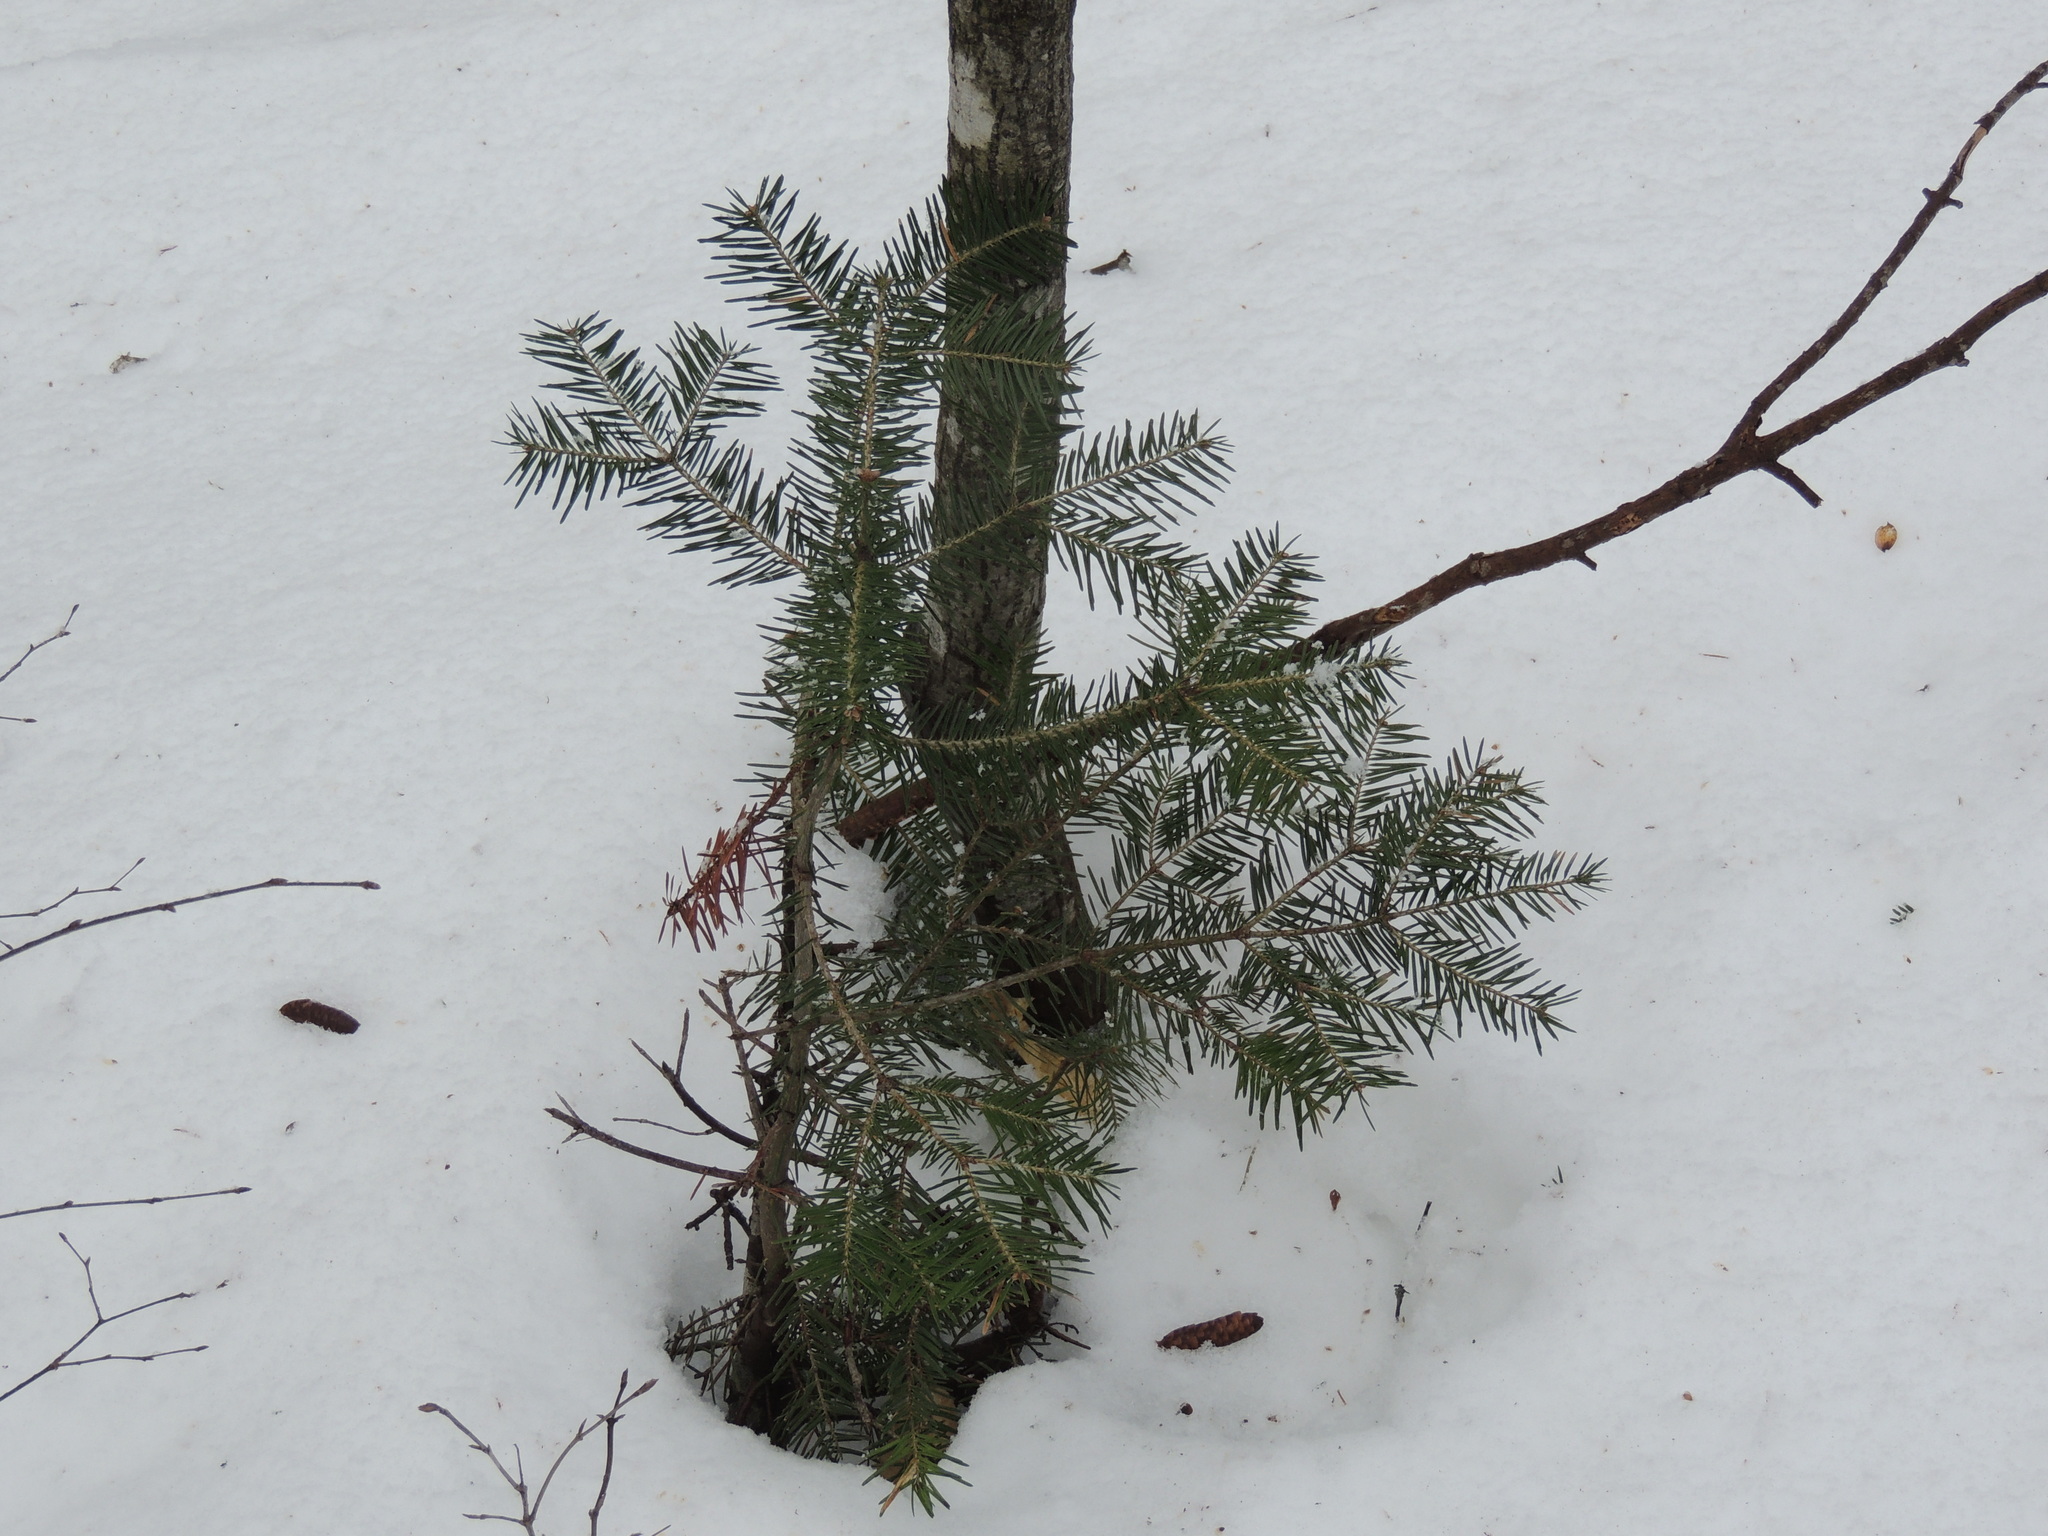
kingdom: Plantae
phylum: Tracheophyta
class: Pinopsida
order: Pinales
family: Pinaceae
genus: Abies
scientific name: Abies balsamea
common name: Balsam fir
